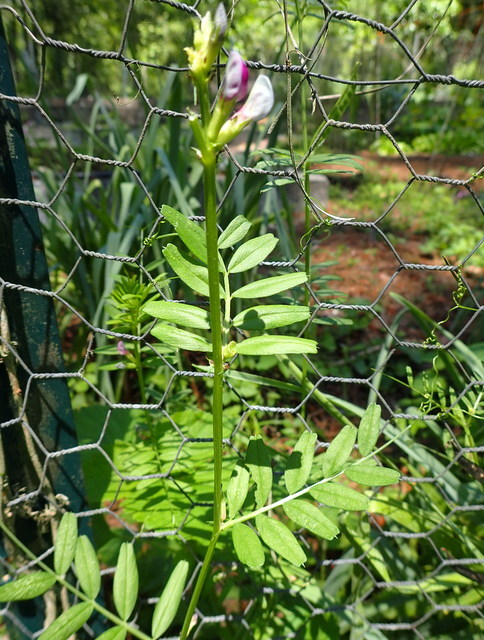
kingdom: Plantae
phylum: Tracheophyta
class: Magnoliopsida
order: Fabales
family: Fabaceae
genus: Vicia
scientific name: Vicia sativa
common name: Garden vetch
